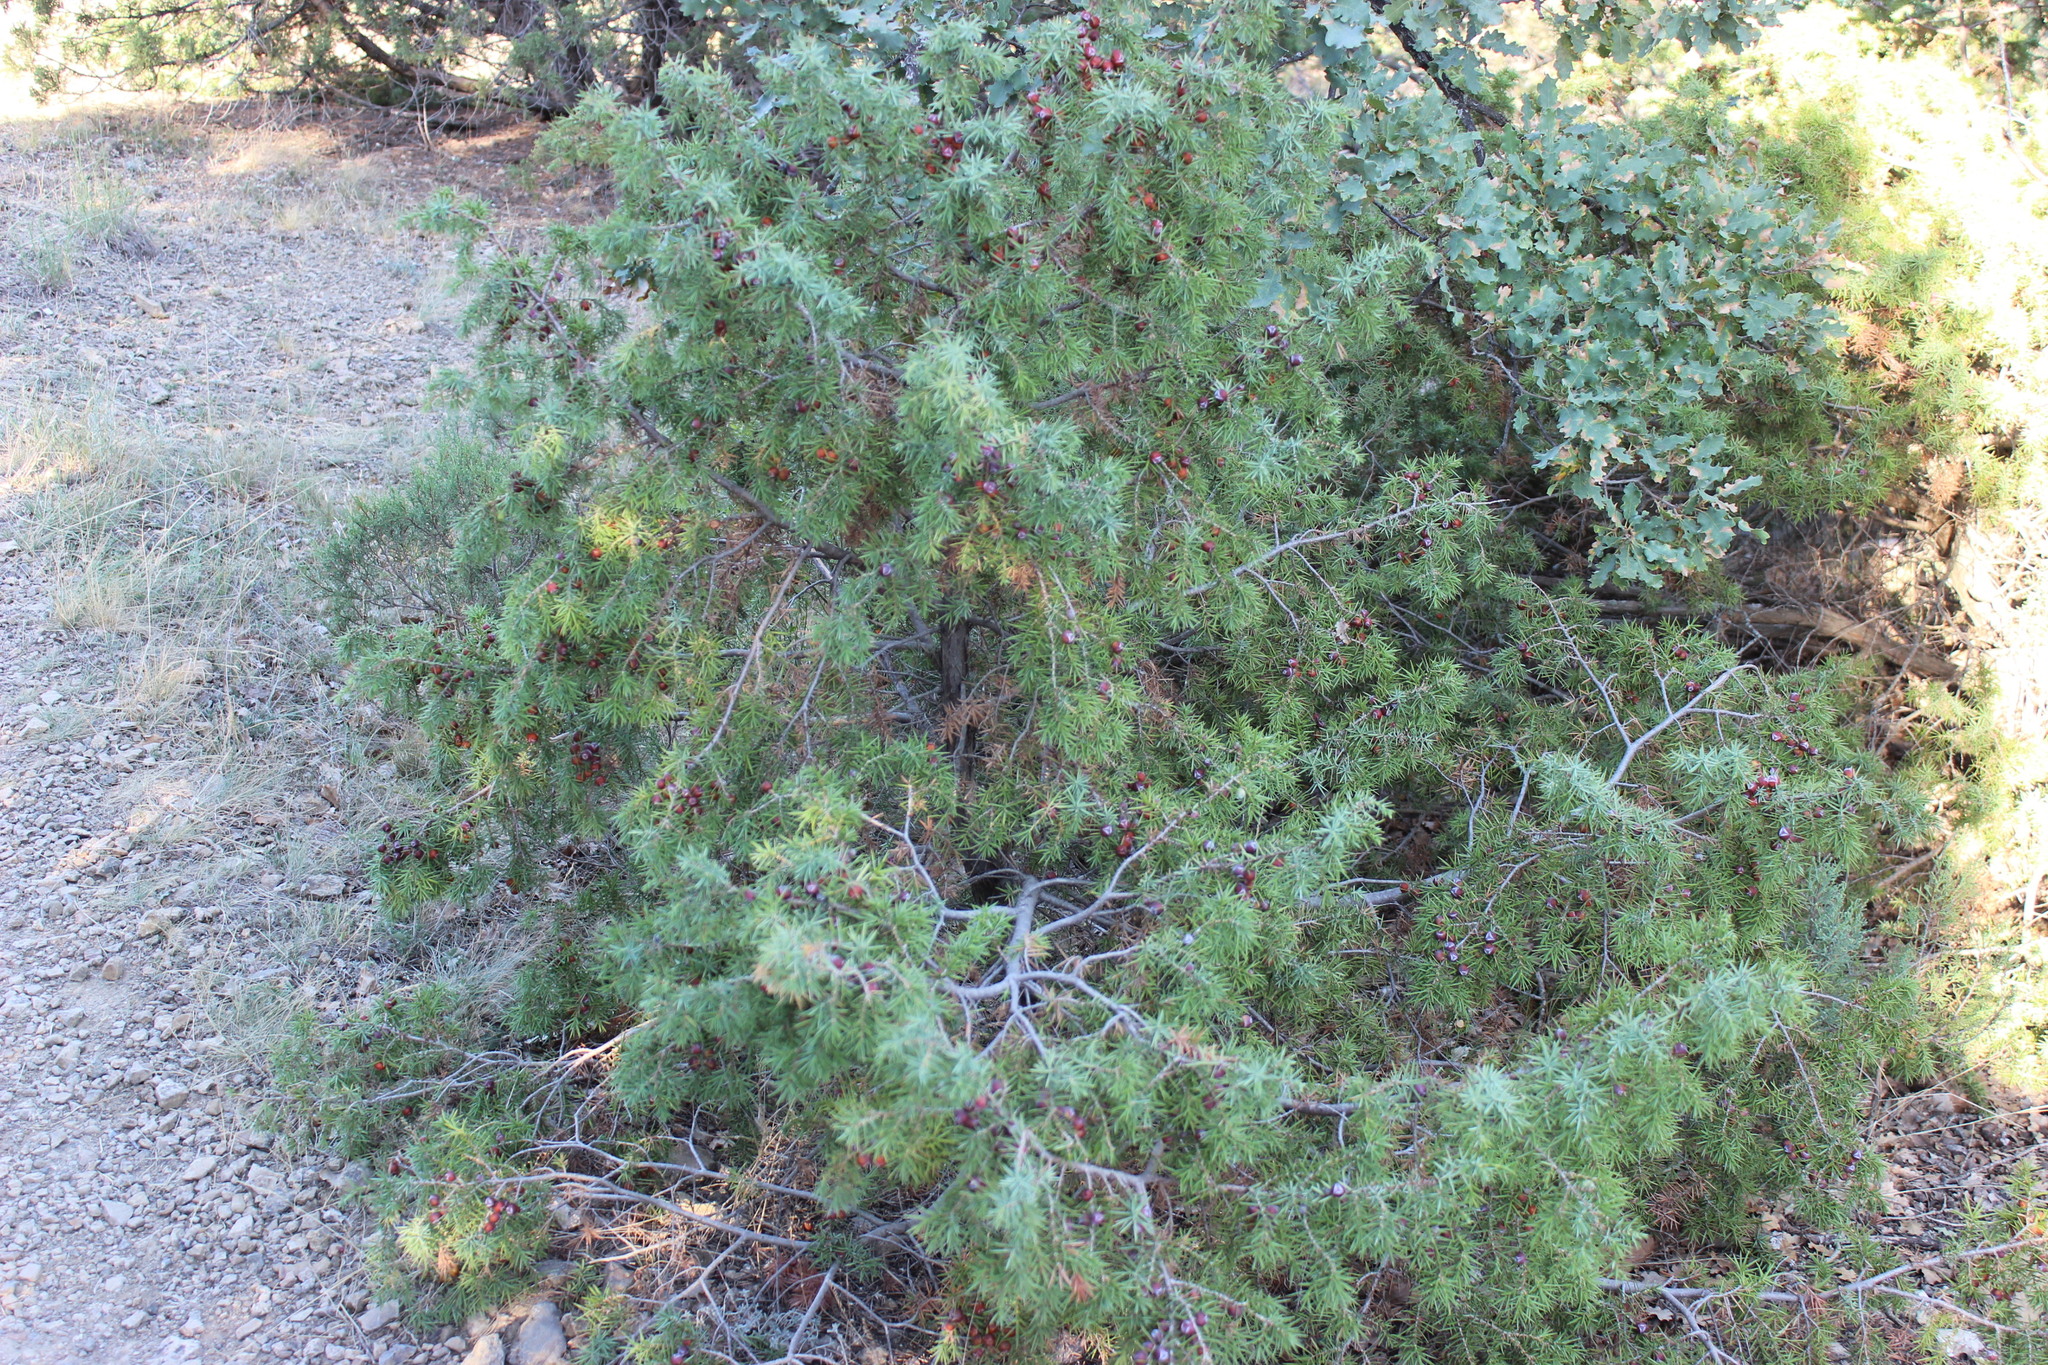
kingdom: Plantae
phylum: Tracheophyta
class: Pinopsida
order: Pinales
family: Cupressaceae
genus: Juniperus
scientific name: Juniperus oxycedrus
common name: Prickly juniper
